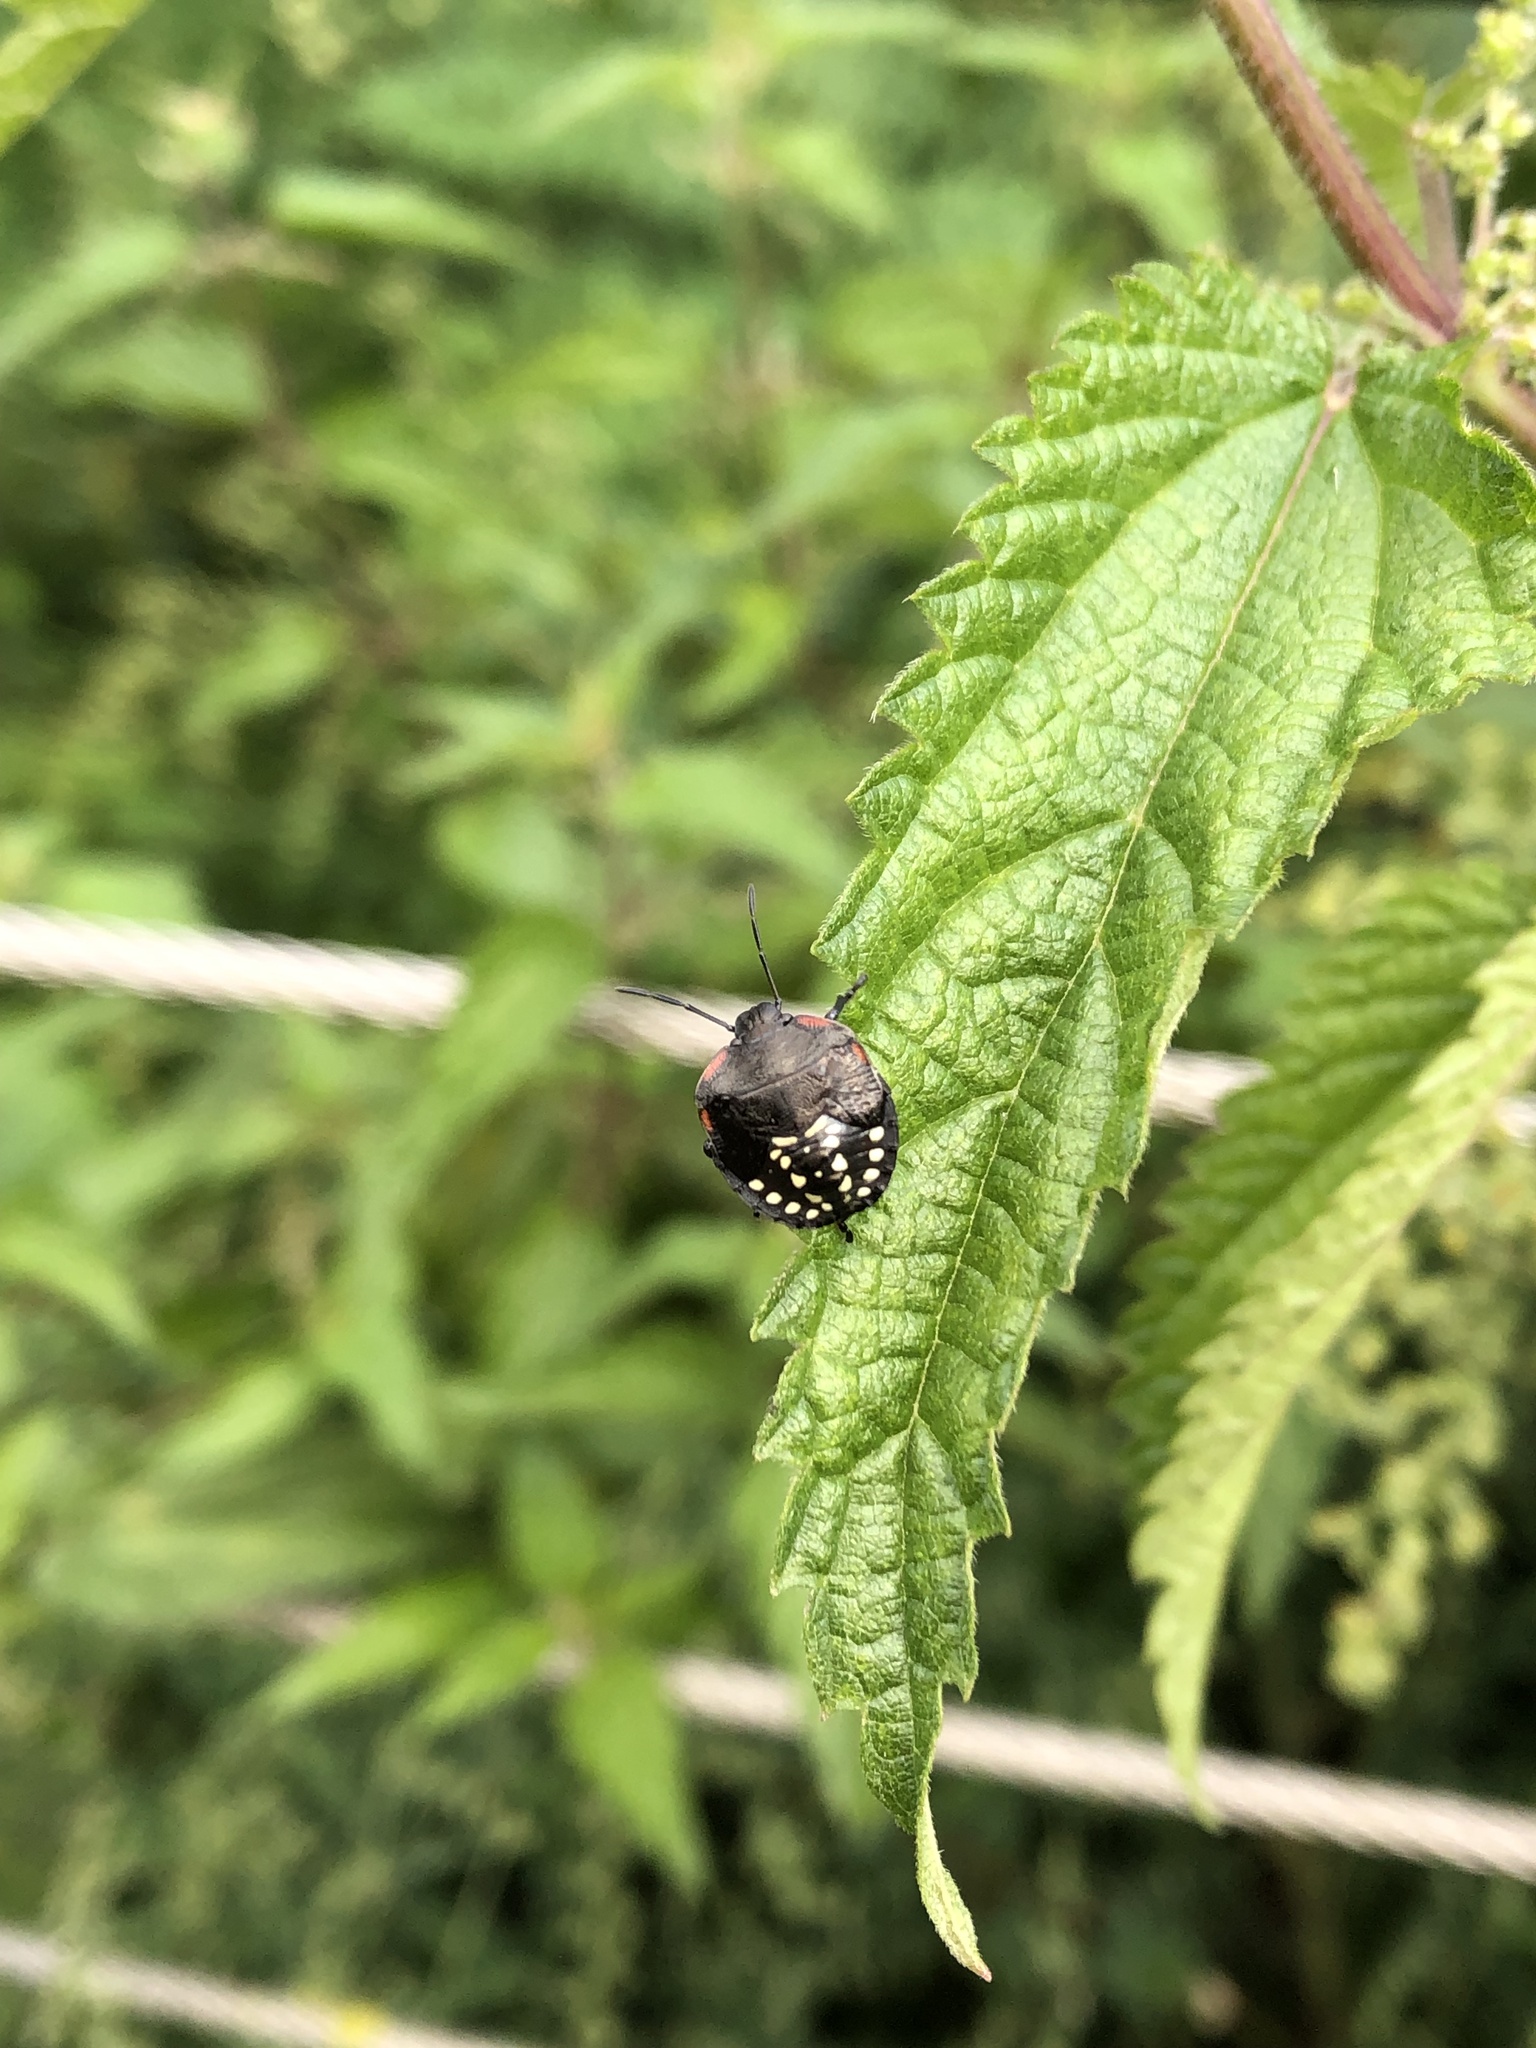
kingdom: Animalia
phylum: Arthropoda
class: Insecta
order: Hemiptera
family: Pentatomidae
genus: Nezara
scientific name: Nezara viridula
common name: Southern green stink bug
